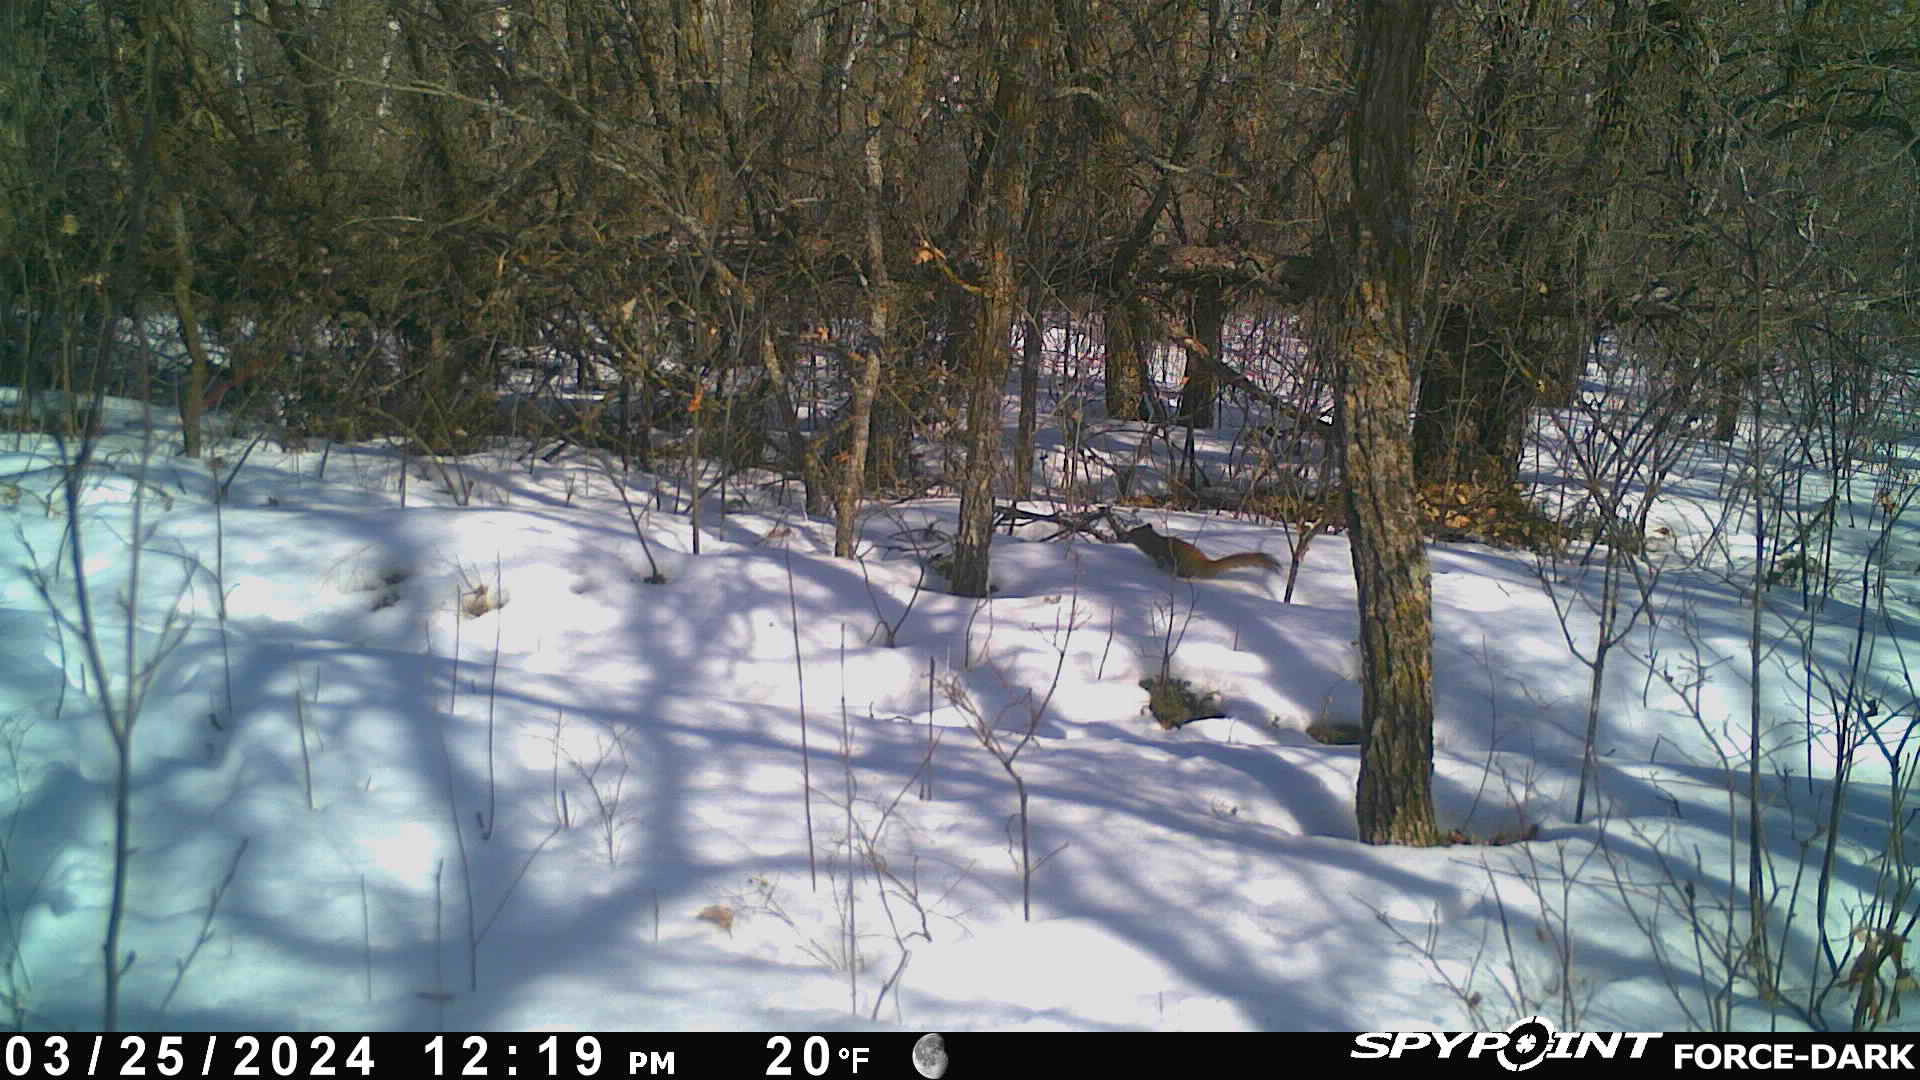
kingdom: Animalia
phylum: Chordata
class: Mammalia
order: Rodentia
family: Sciuridae
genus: Tamiasciurus
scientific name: Tamiasciurus hudsonicus
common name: Red squirrel
